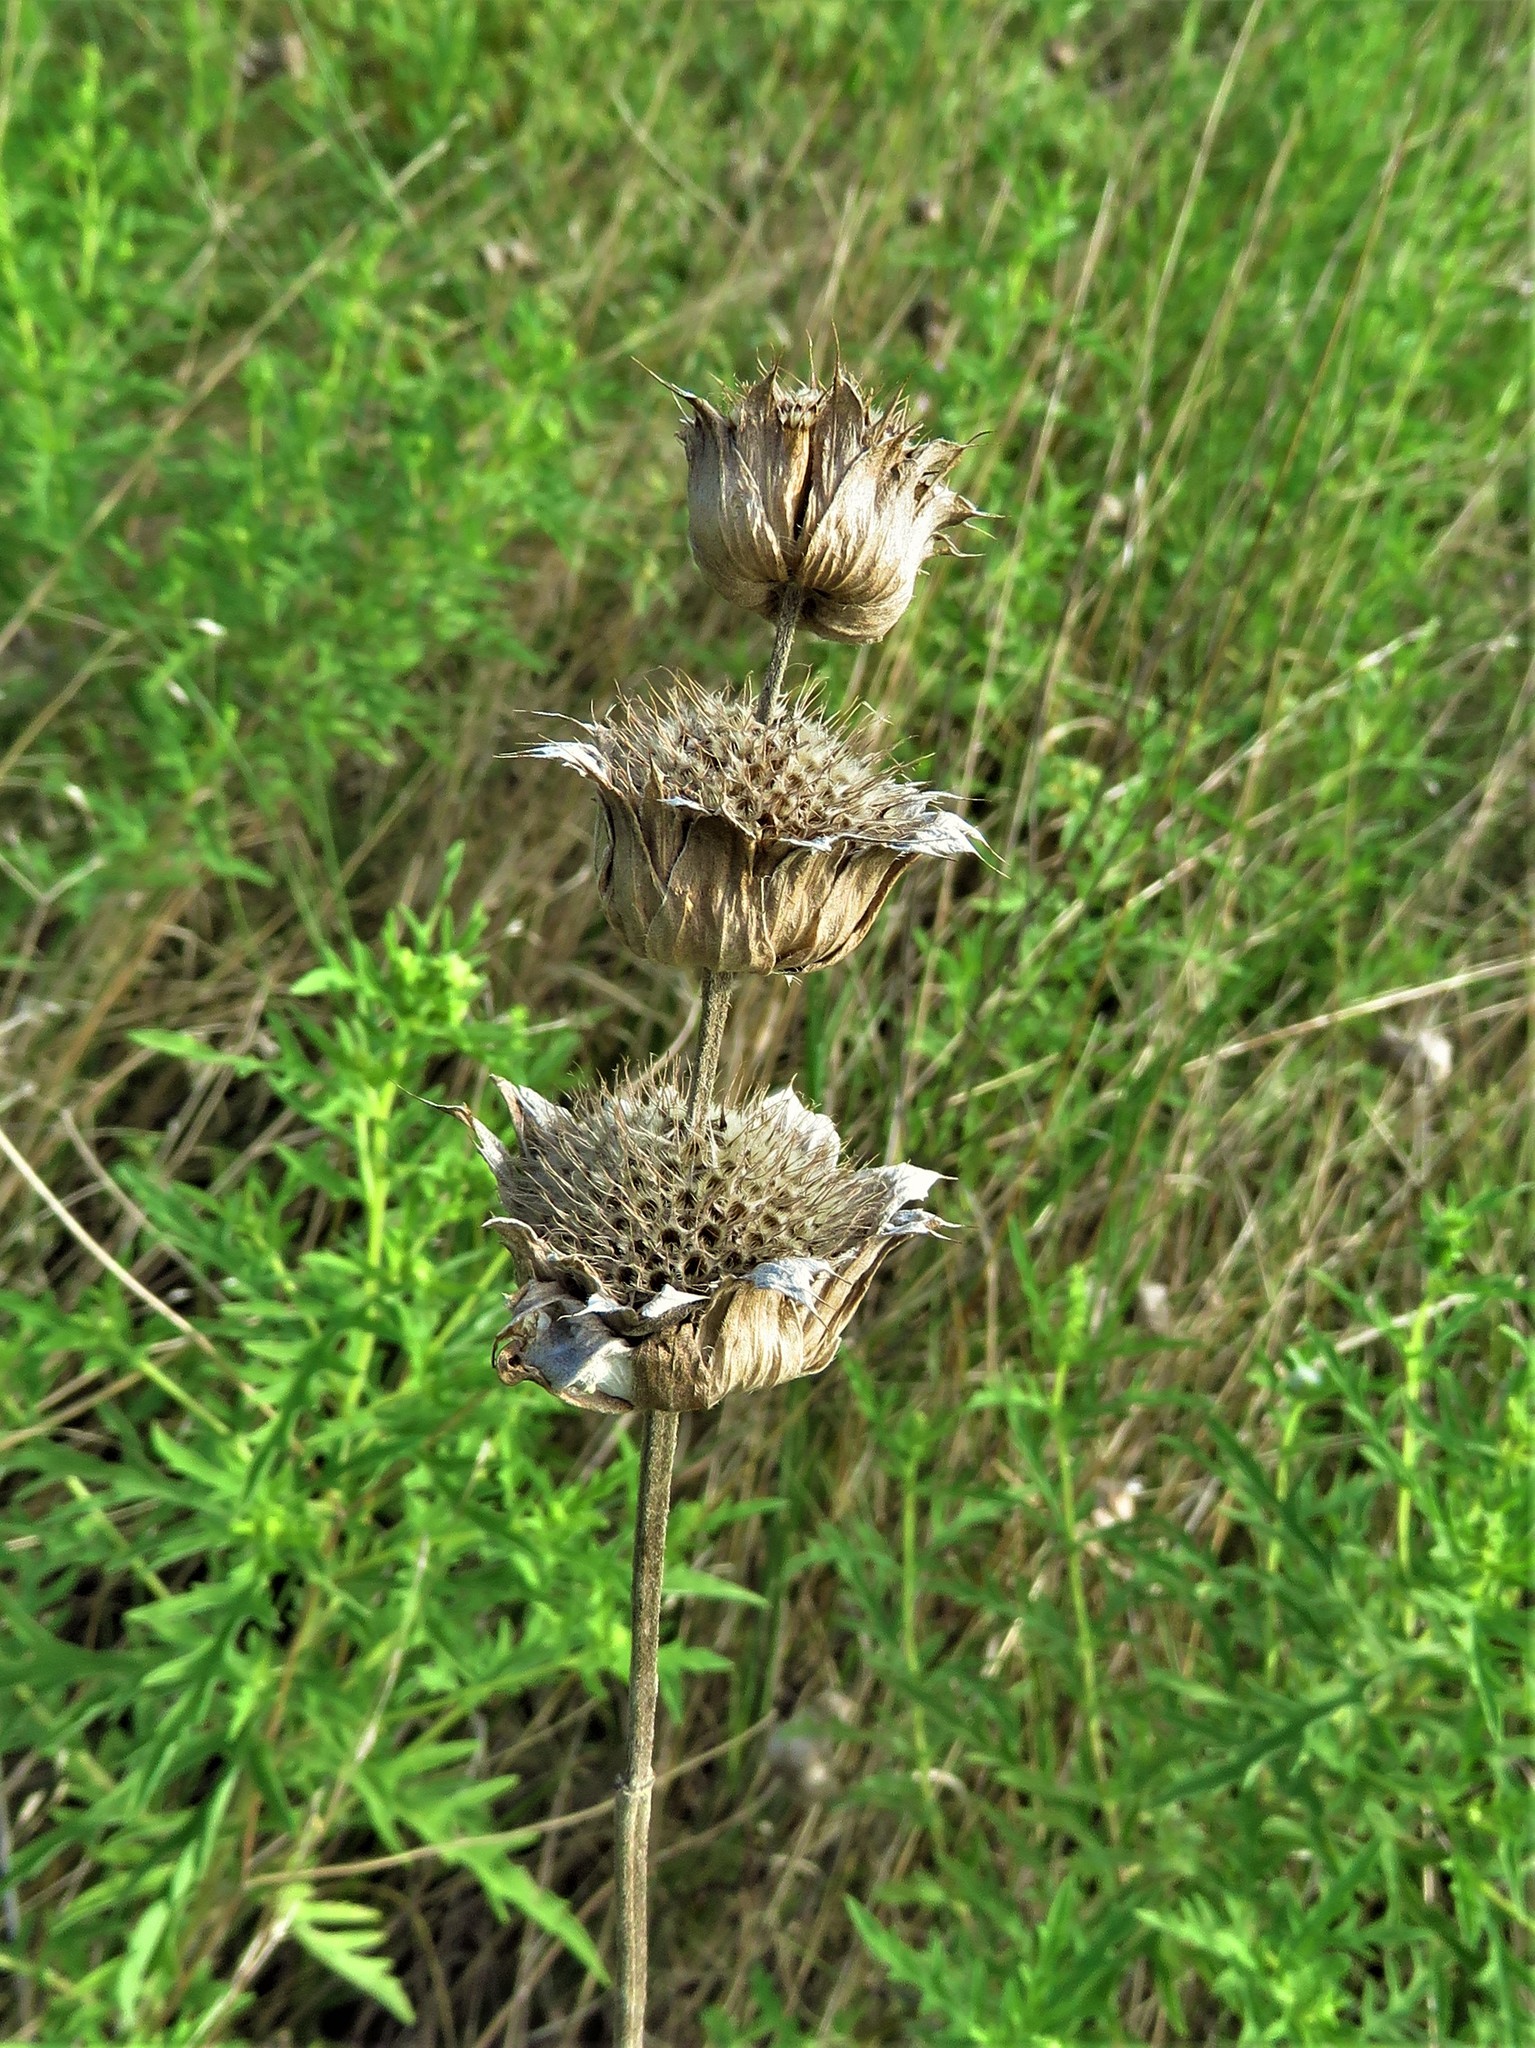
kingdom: Plantae
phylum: Tracheophyta
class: Magnoliopsida
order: Lamiales
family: Lamiaceae
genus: Monarda
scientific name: Monarda citriodora
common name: Lemon beebalm
